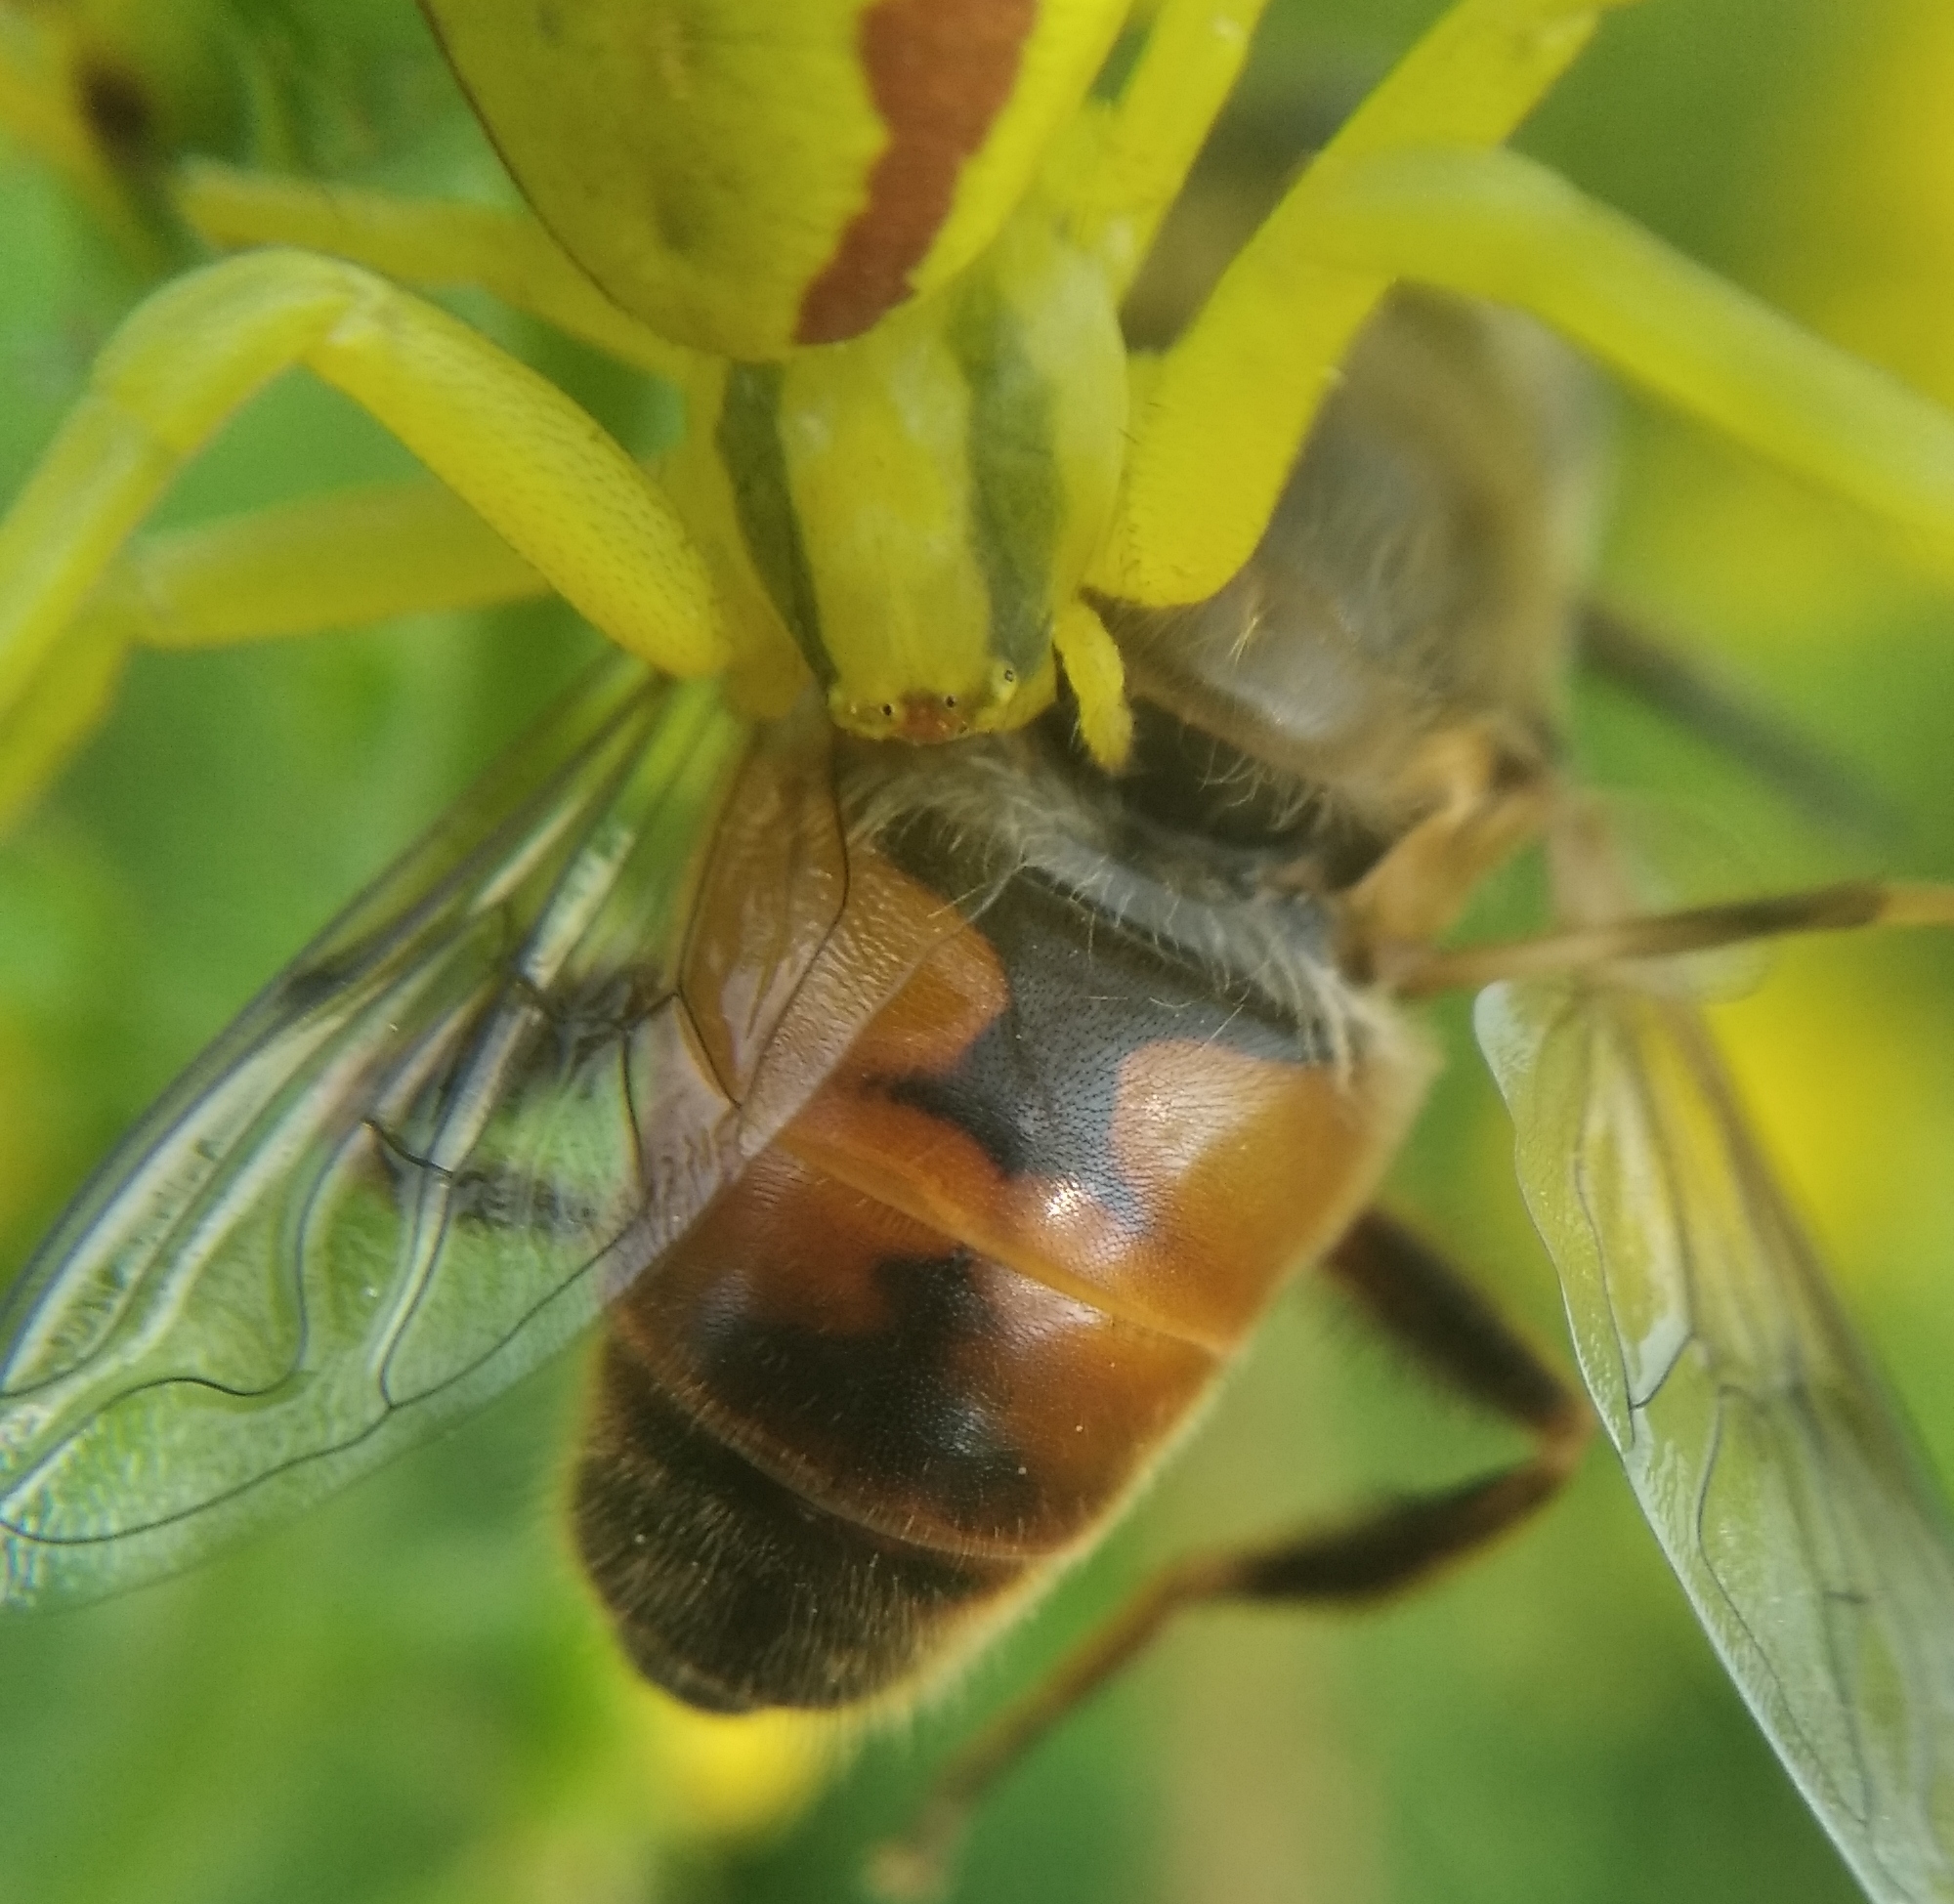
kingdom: Animalia
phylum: Arthropoda
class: Insecta
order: Diptera
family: Syrphidae
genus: Eristalis
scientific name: Eristalis tenax
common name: Drone fly
